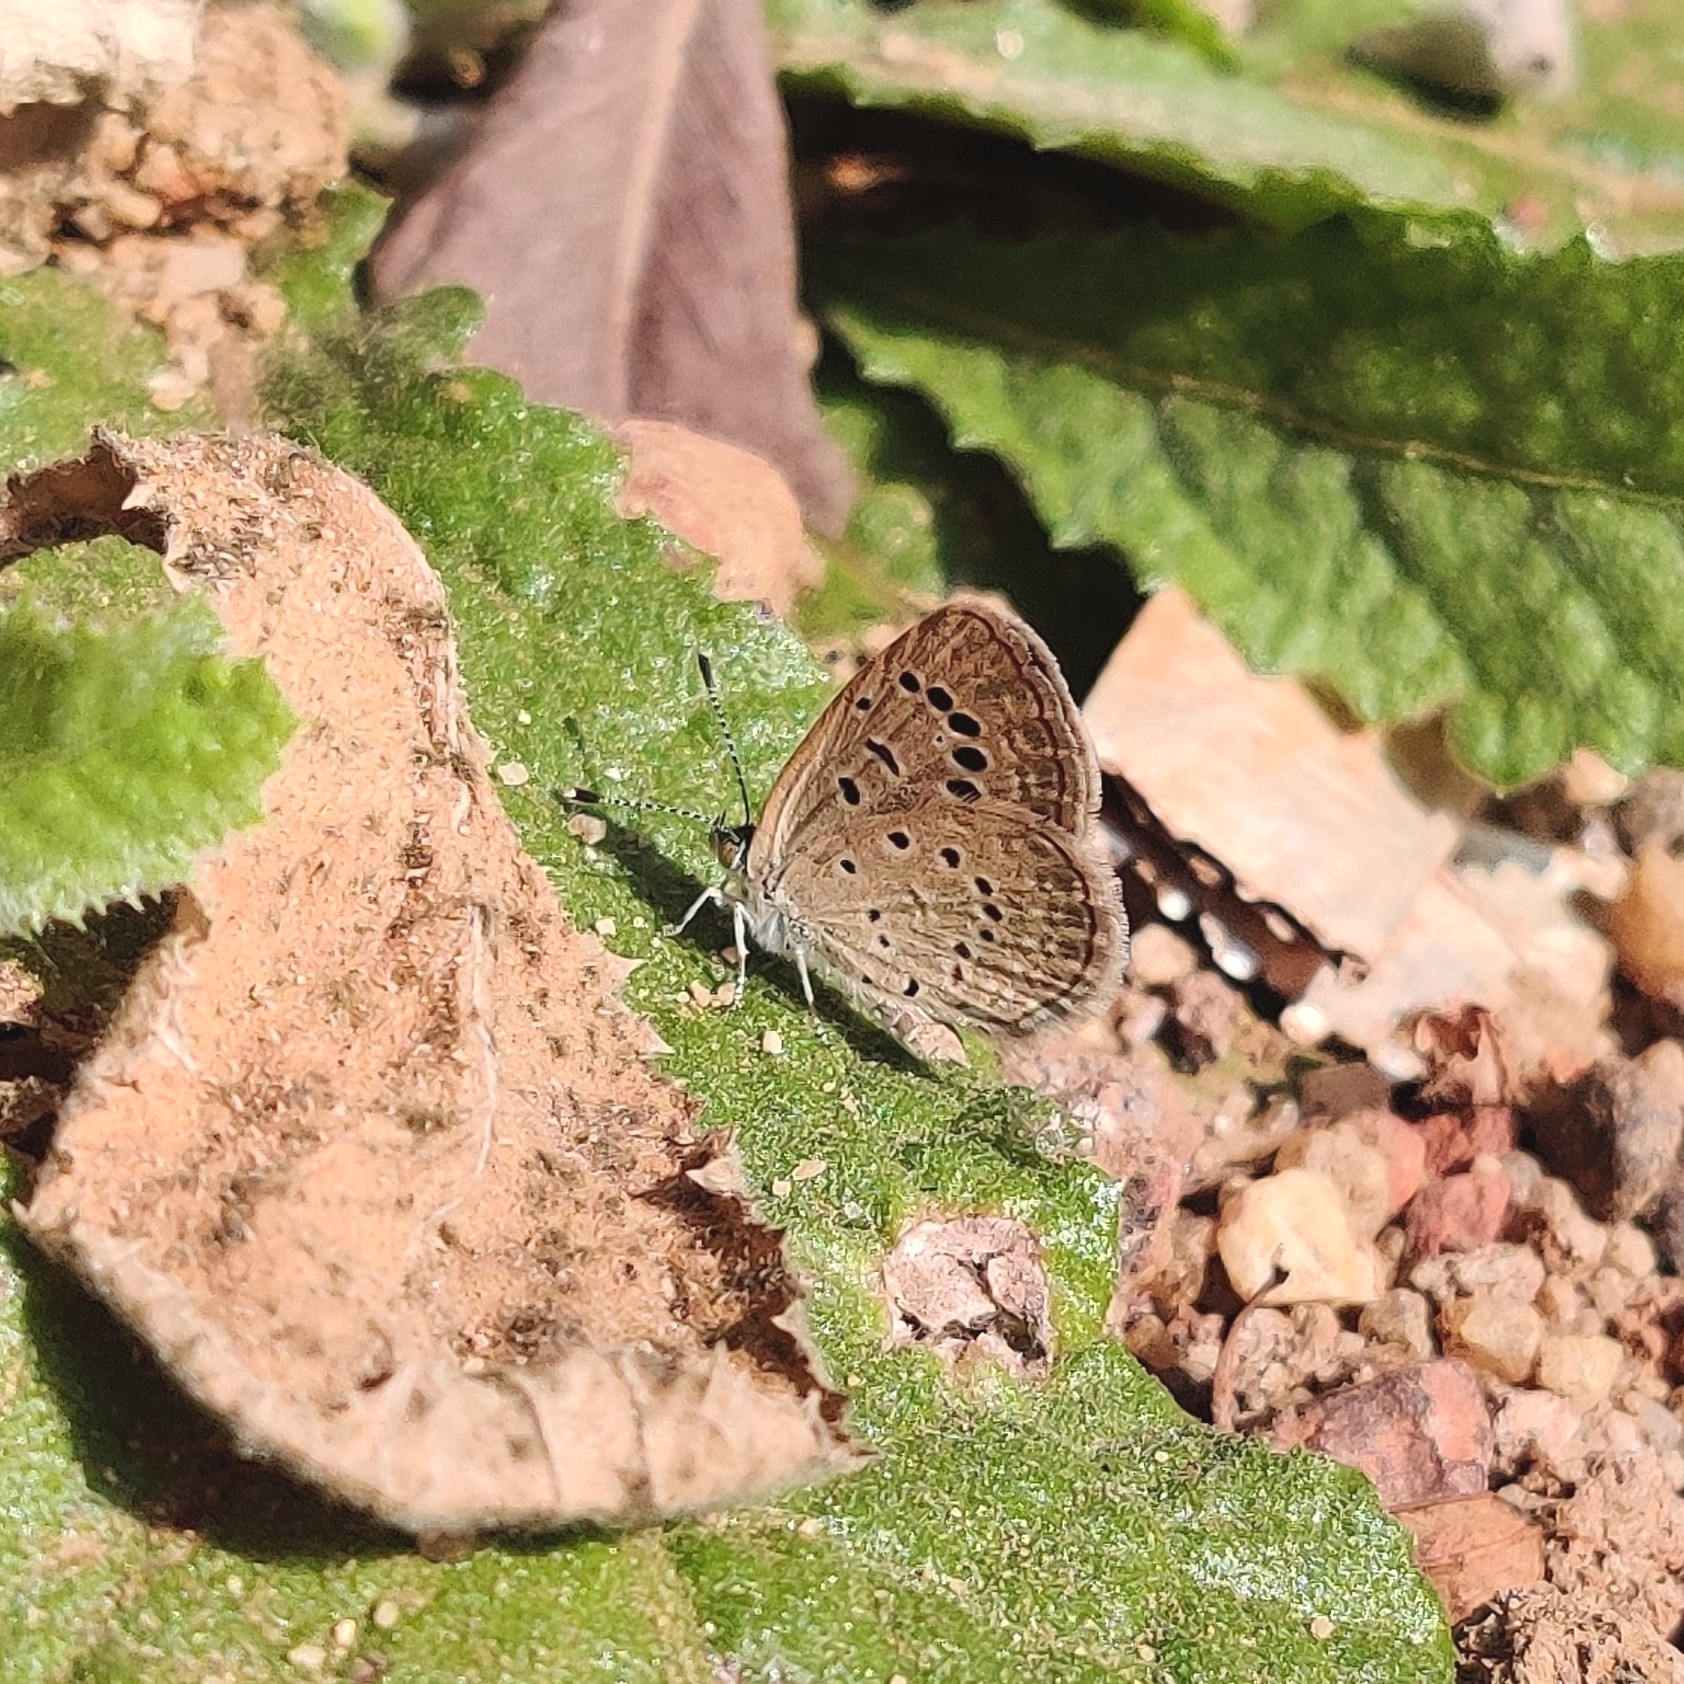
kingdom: Animalia
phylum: Arthropoda
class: Insecta
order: Lepidoptera
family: Lycaenidae
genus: Zizeeria
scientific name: Zizeeria karsandra
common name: Dark grass blue
